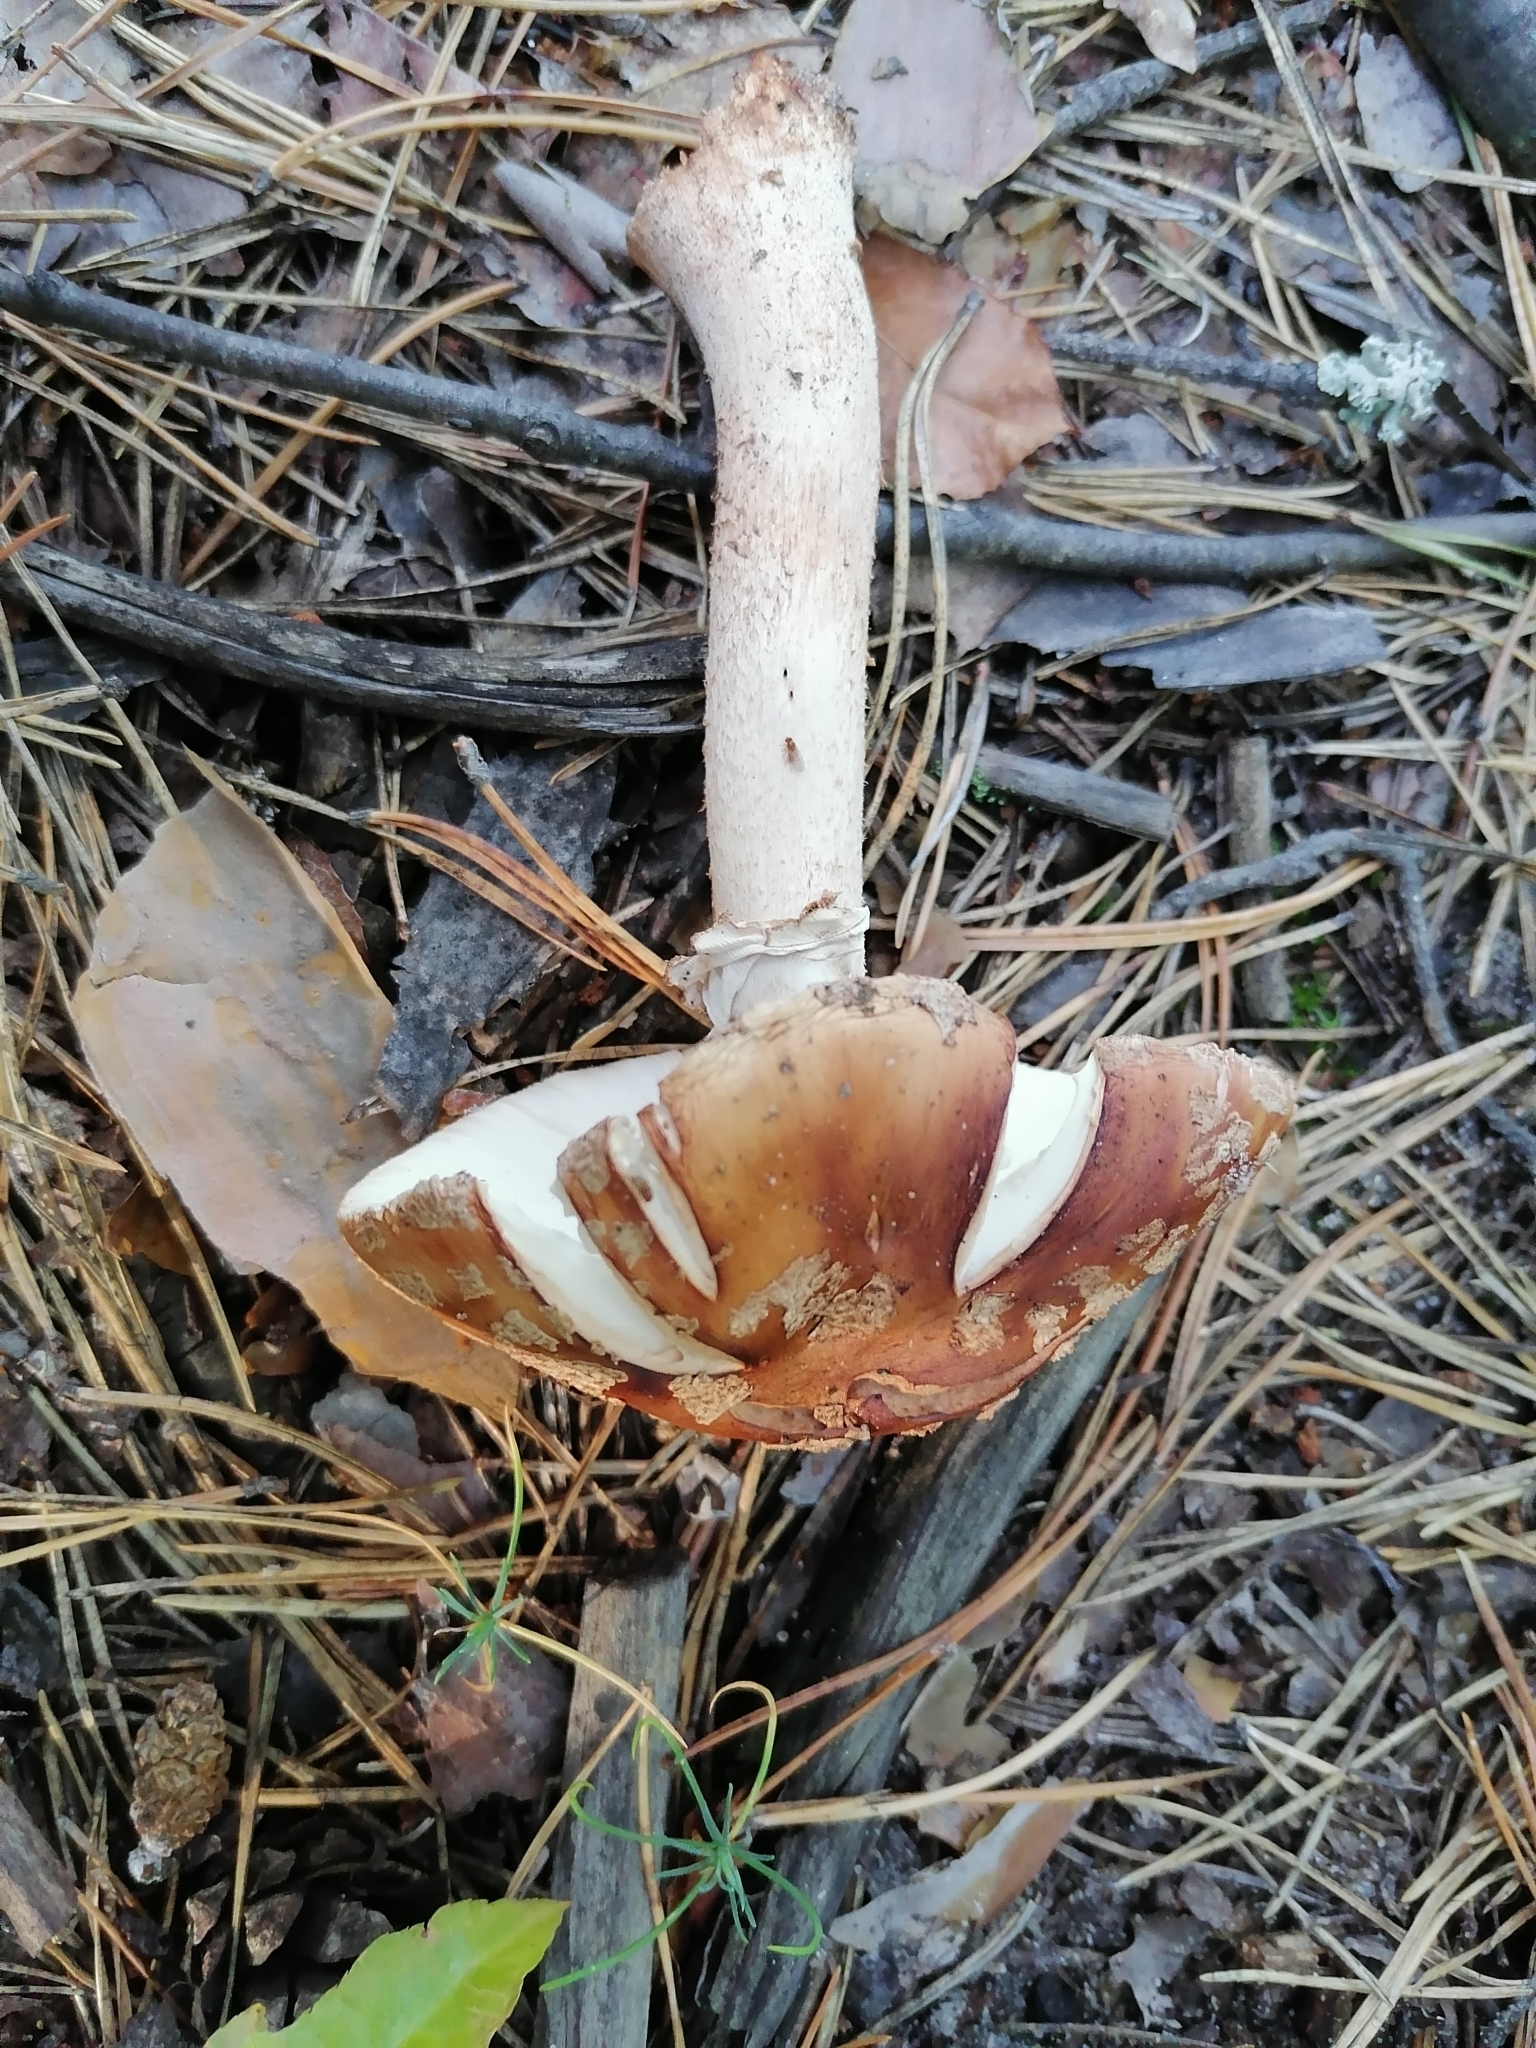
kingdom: Fungi
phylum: Basidiomycota
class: Agaricomycetes
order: Agaricales
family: Amanitaceae
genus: Amanita
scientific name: Amanita rubescens
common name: Blusher
